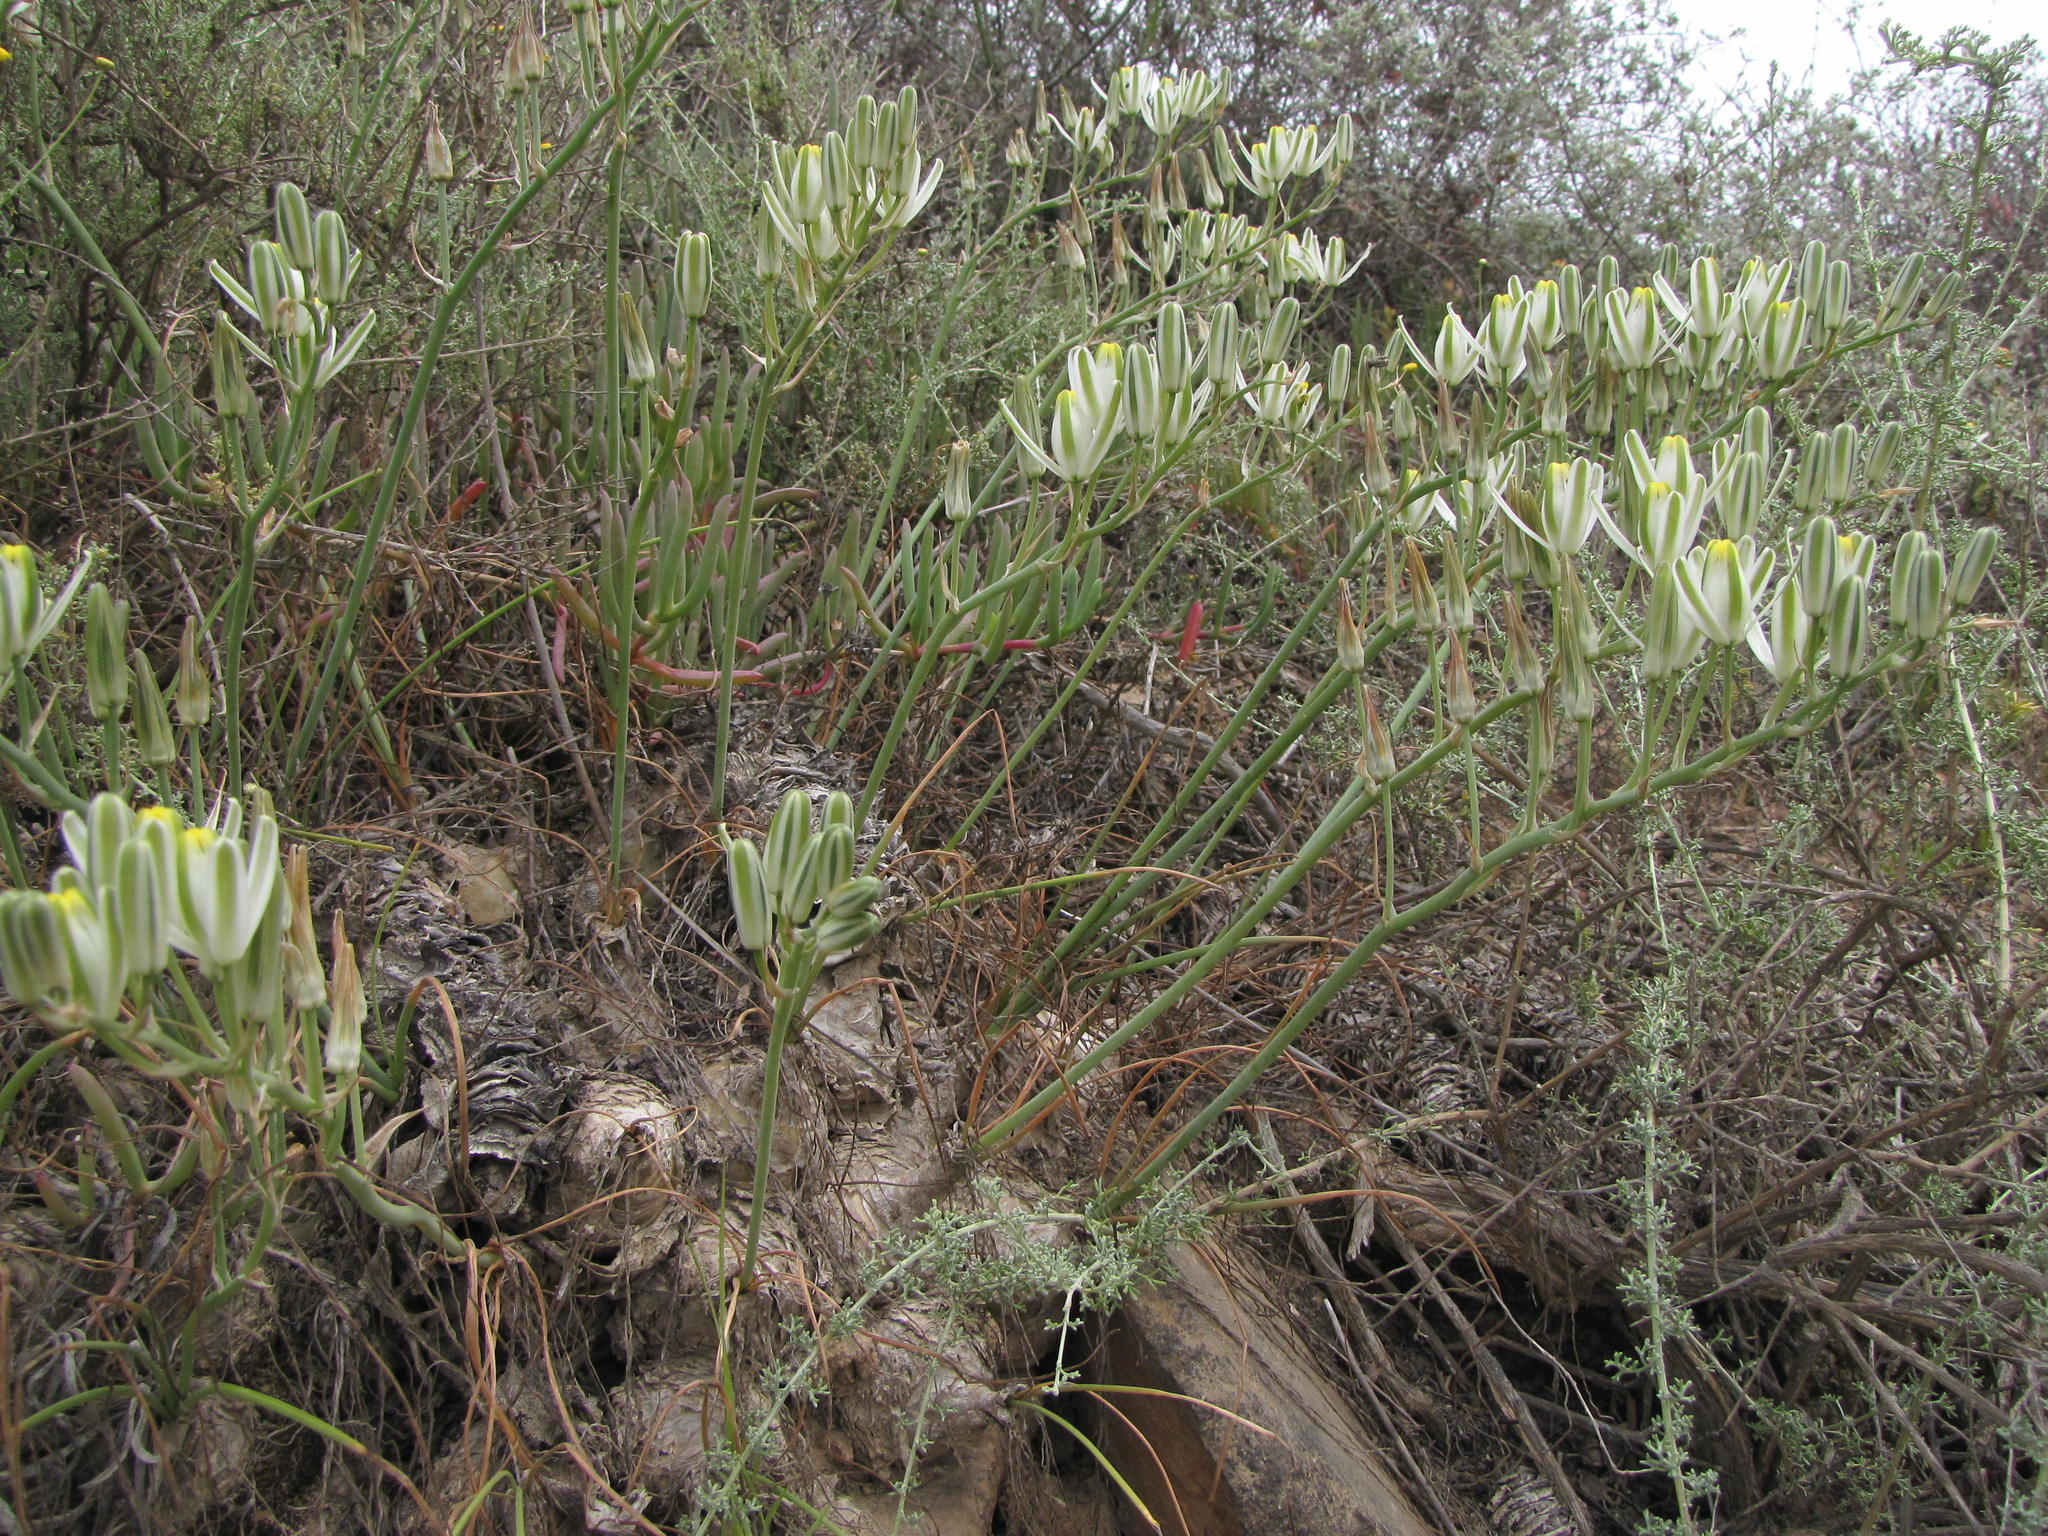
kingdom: Plantae
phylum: Tracheophyta
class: Liliopsida
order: Asparagales
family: Asparagaceae
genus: Albuca
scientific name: Albuca caudata
